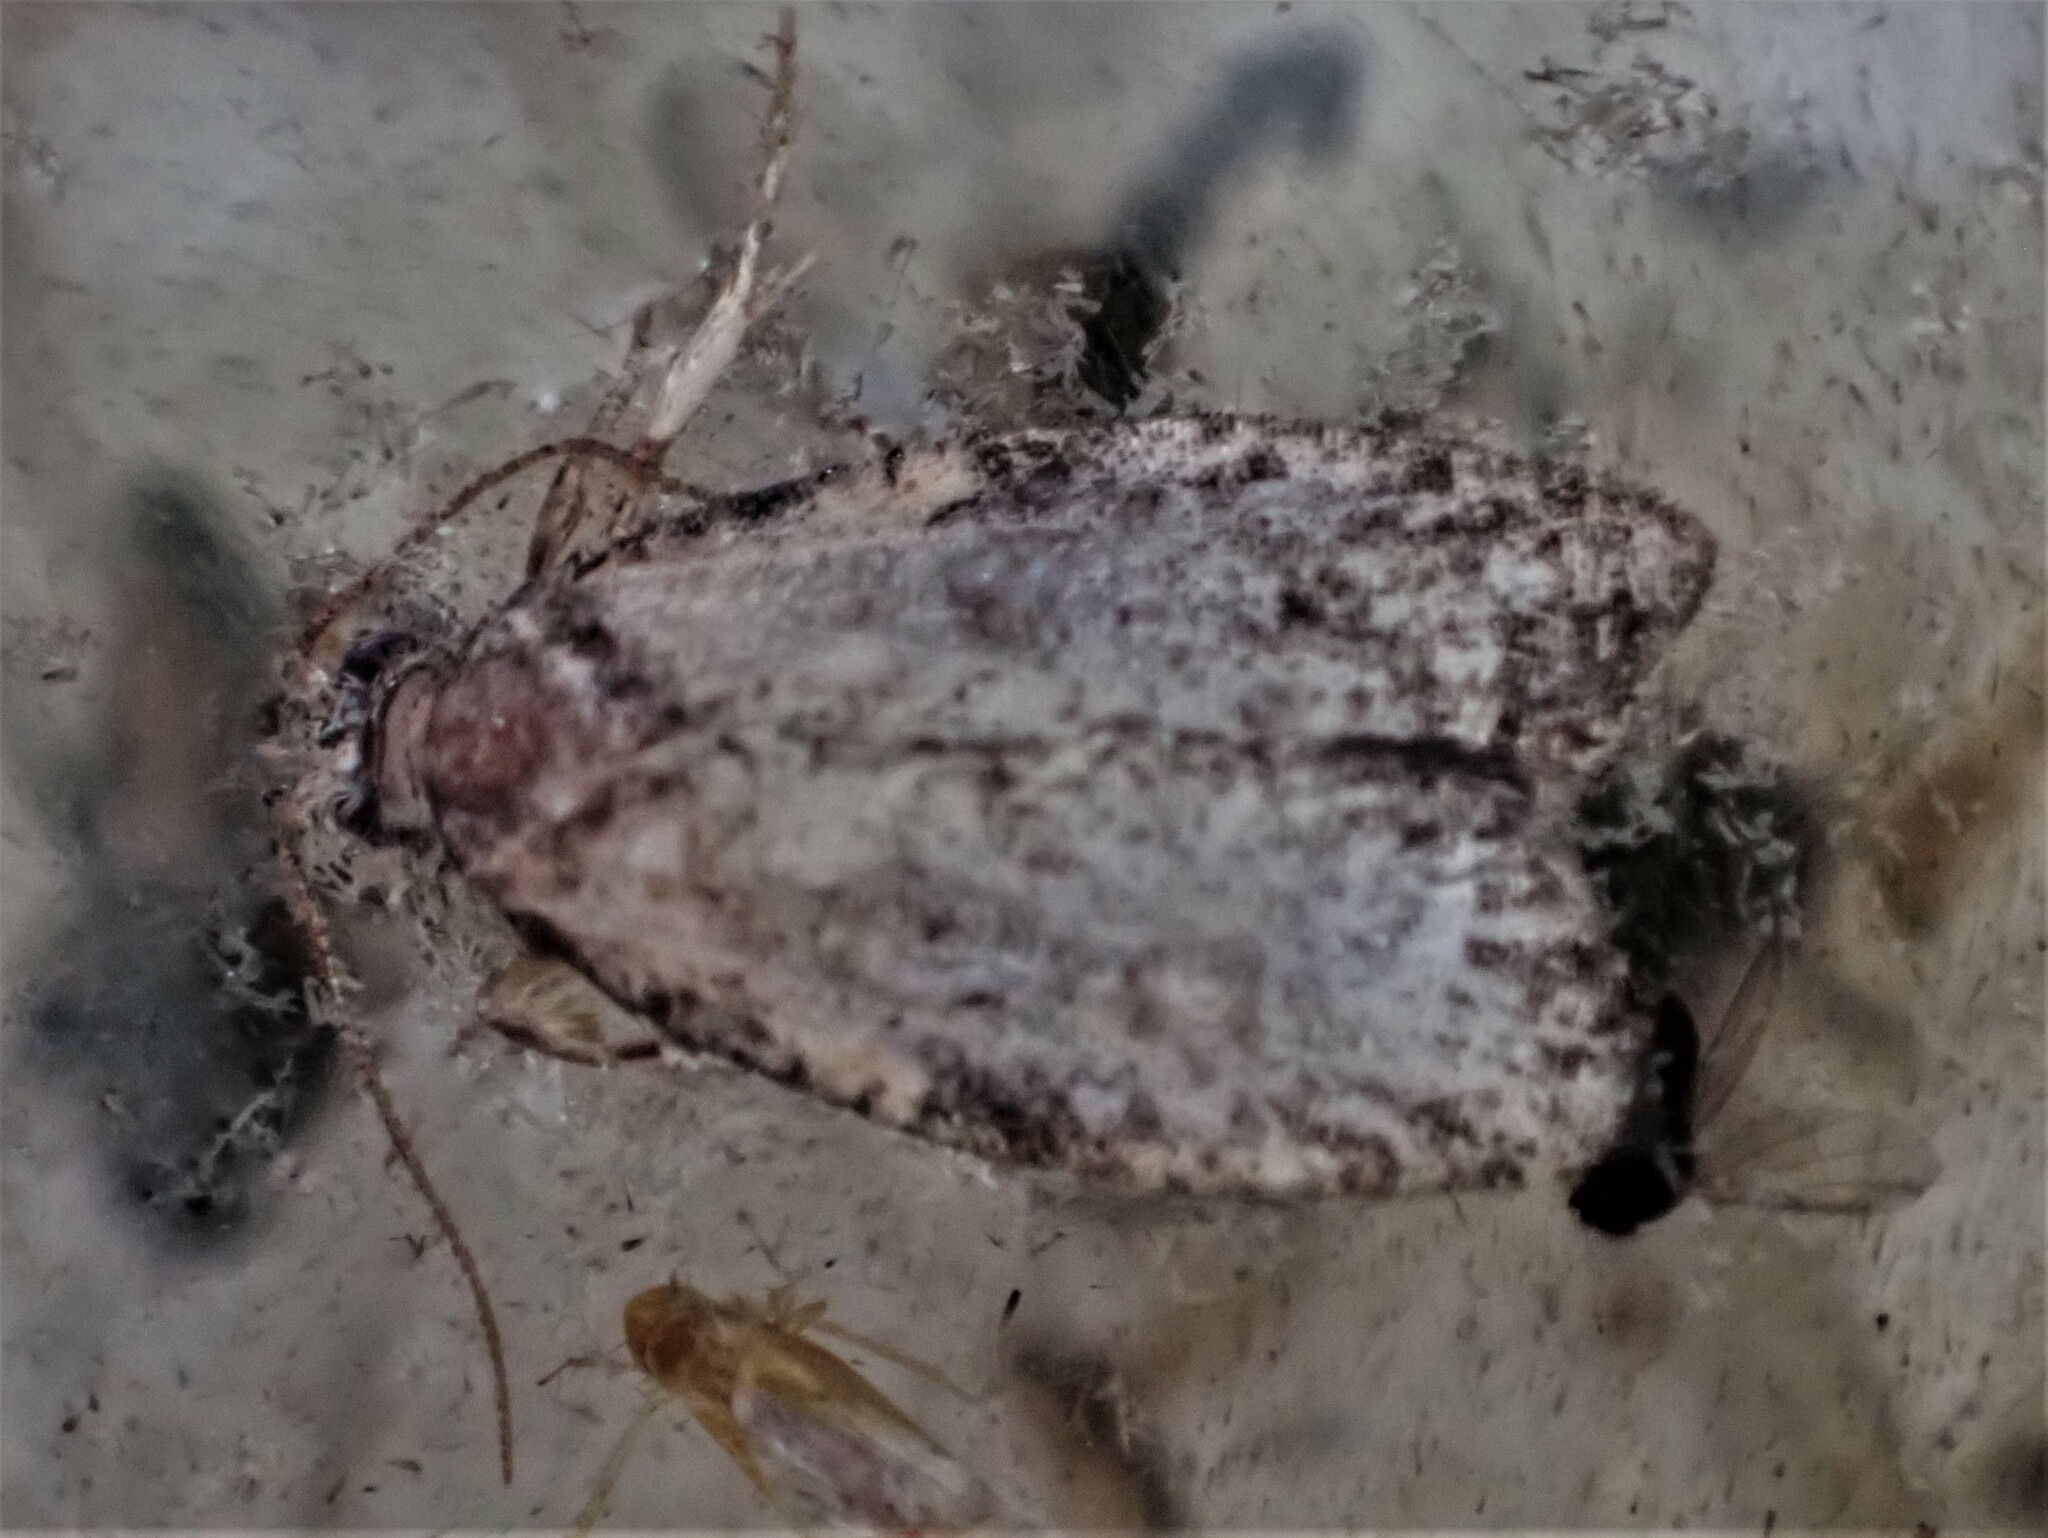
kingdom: Animalia
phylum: Arthropoda
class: Insecta
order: Lepidoptera
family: Tortricidae
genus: Capua
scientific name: Capua intractana
